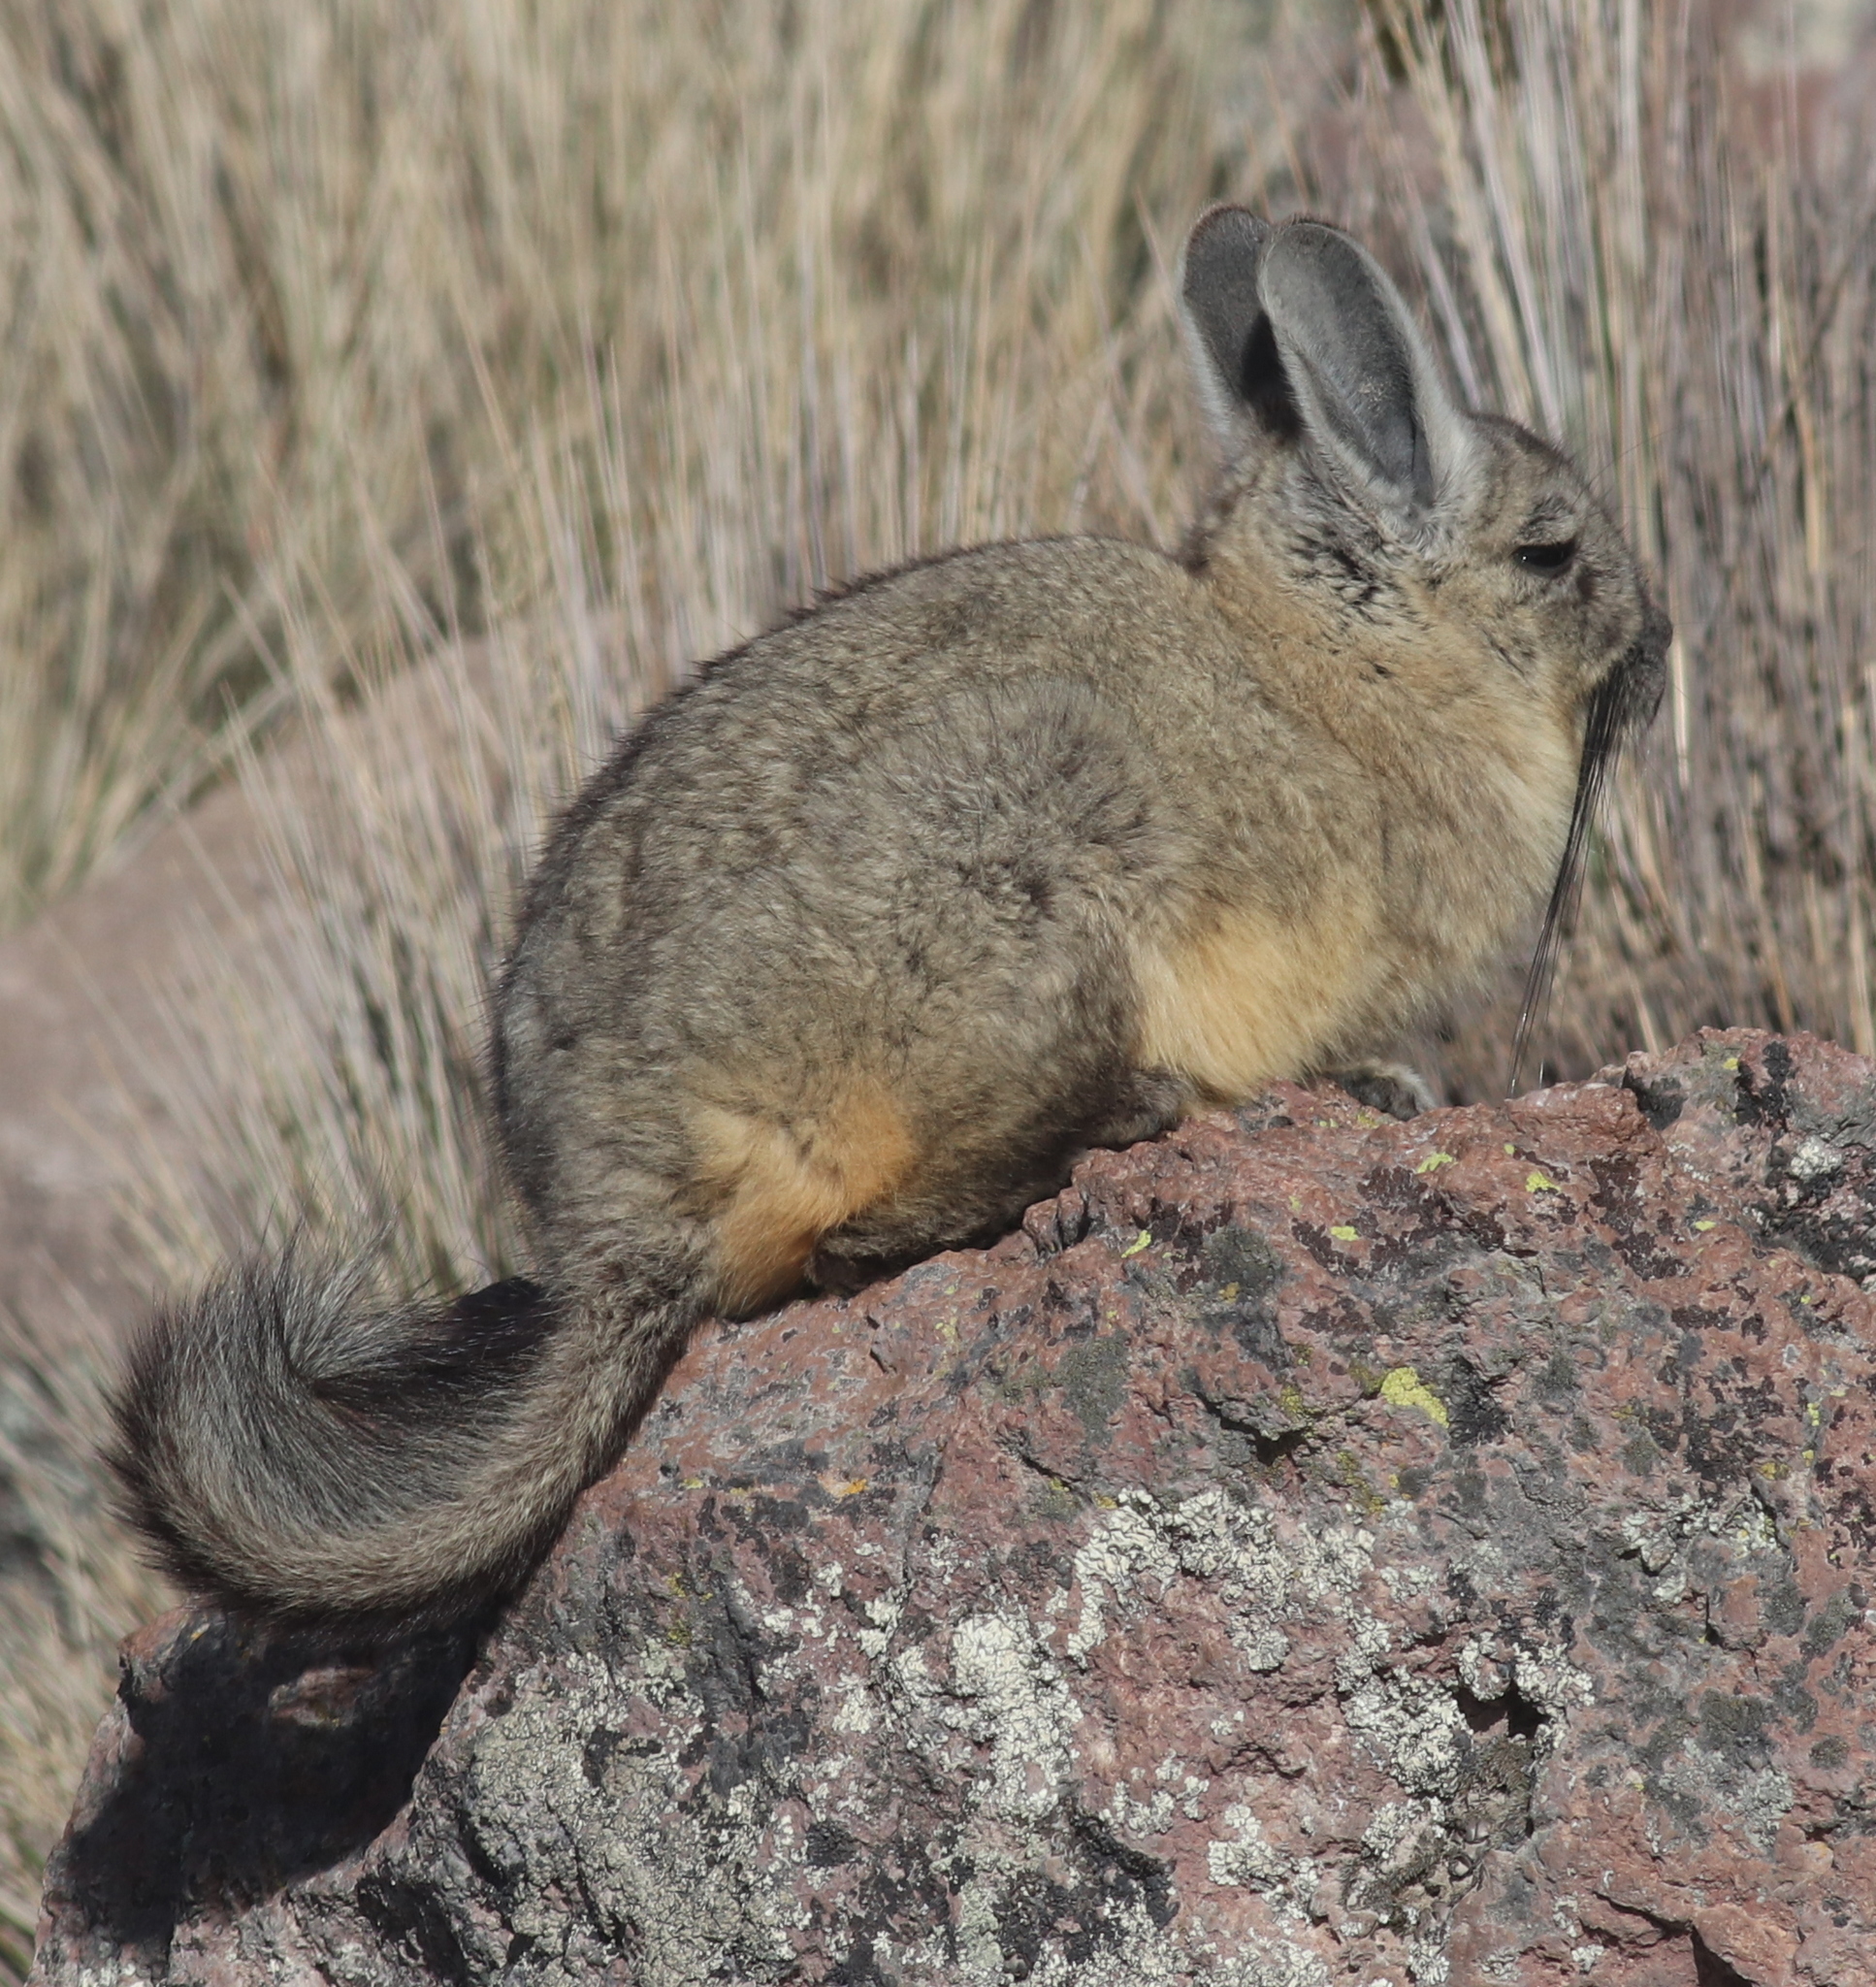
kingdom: Animalia
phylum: Chordata
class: Mammalia
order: Rodentia
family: Chinchillidae
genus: Lagidium
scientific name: Lagidium viscacia
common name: Southern viscacha
